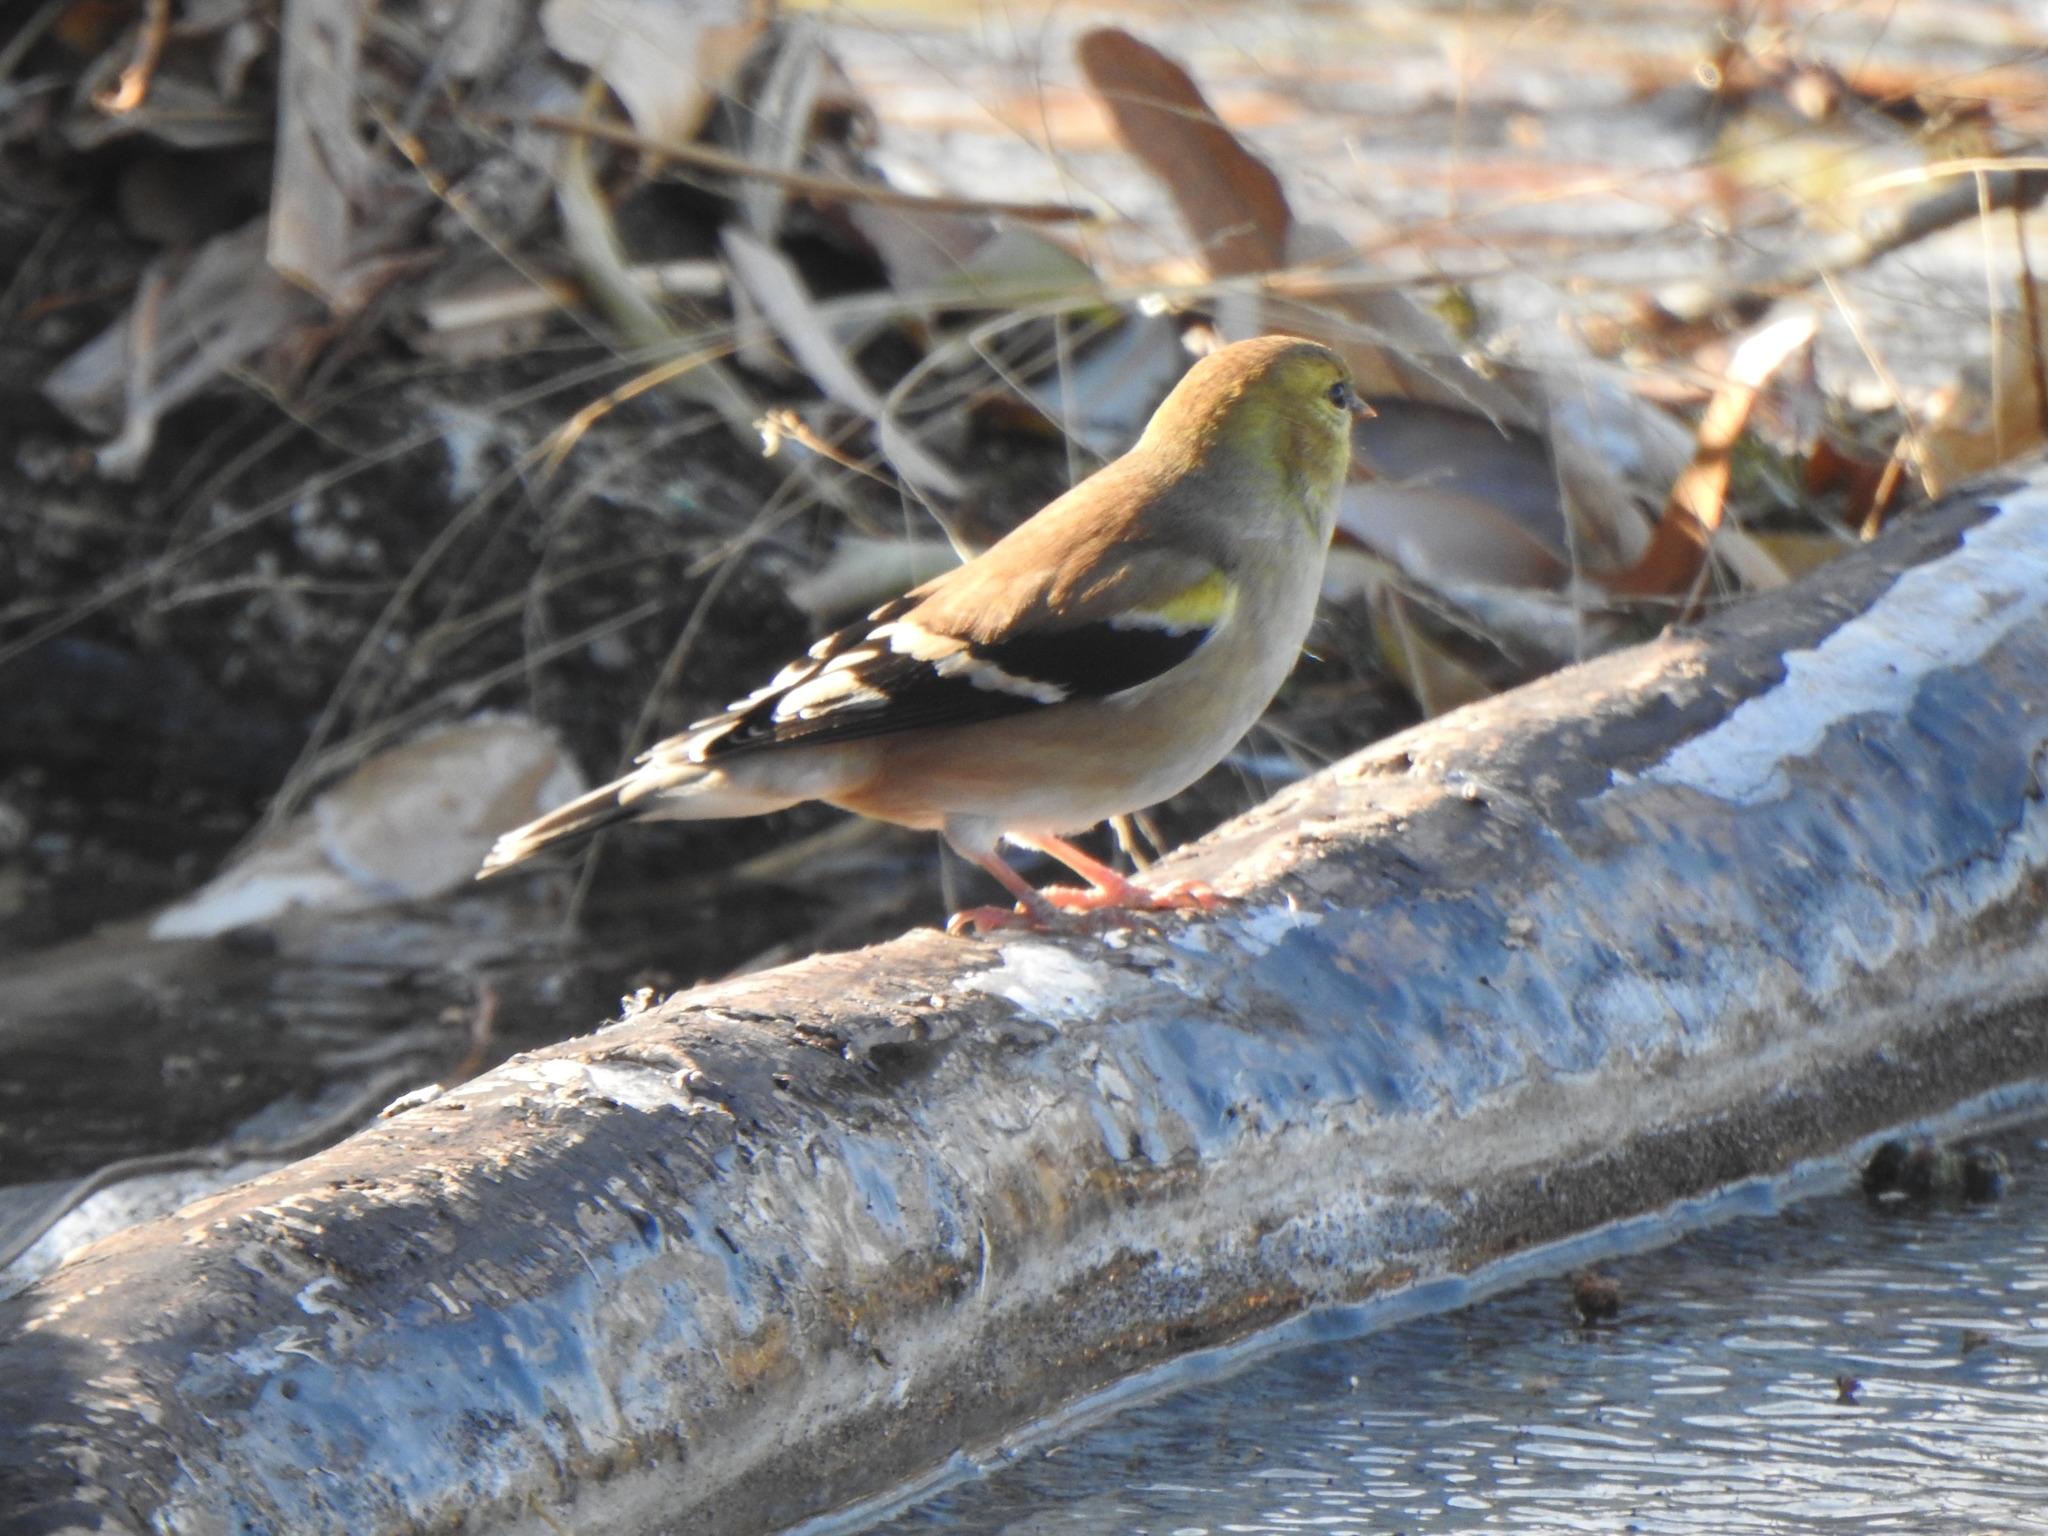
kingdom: Animalia
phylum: Chordata
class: Aves
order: Passeriformes
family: Fringillidae
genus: Spinus
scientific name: Spinus tristis
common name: American goldfinch
